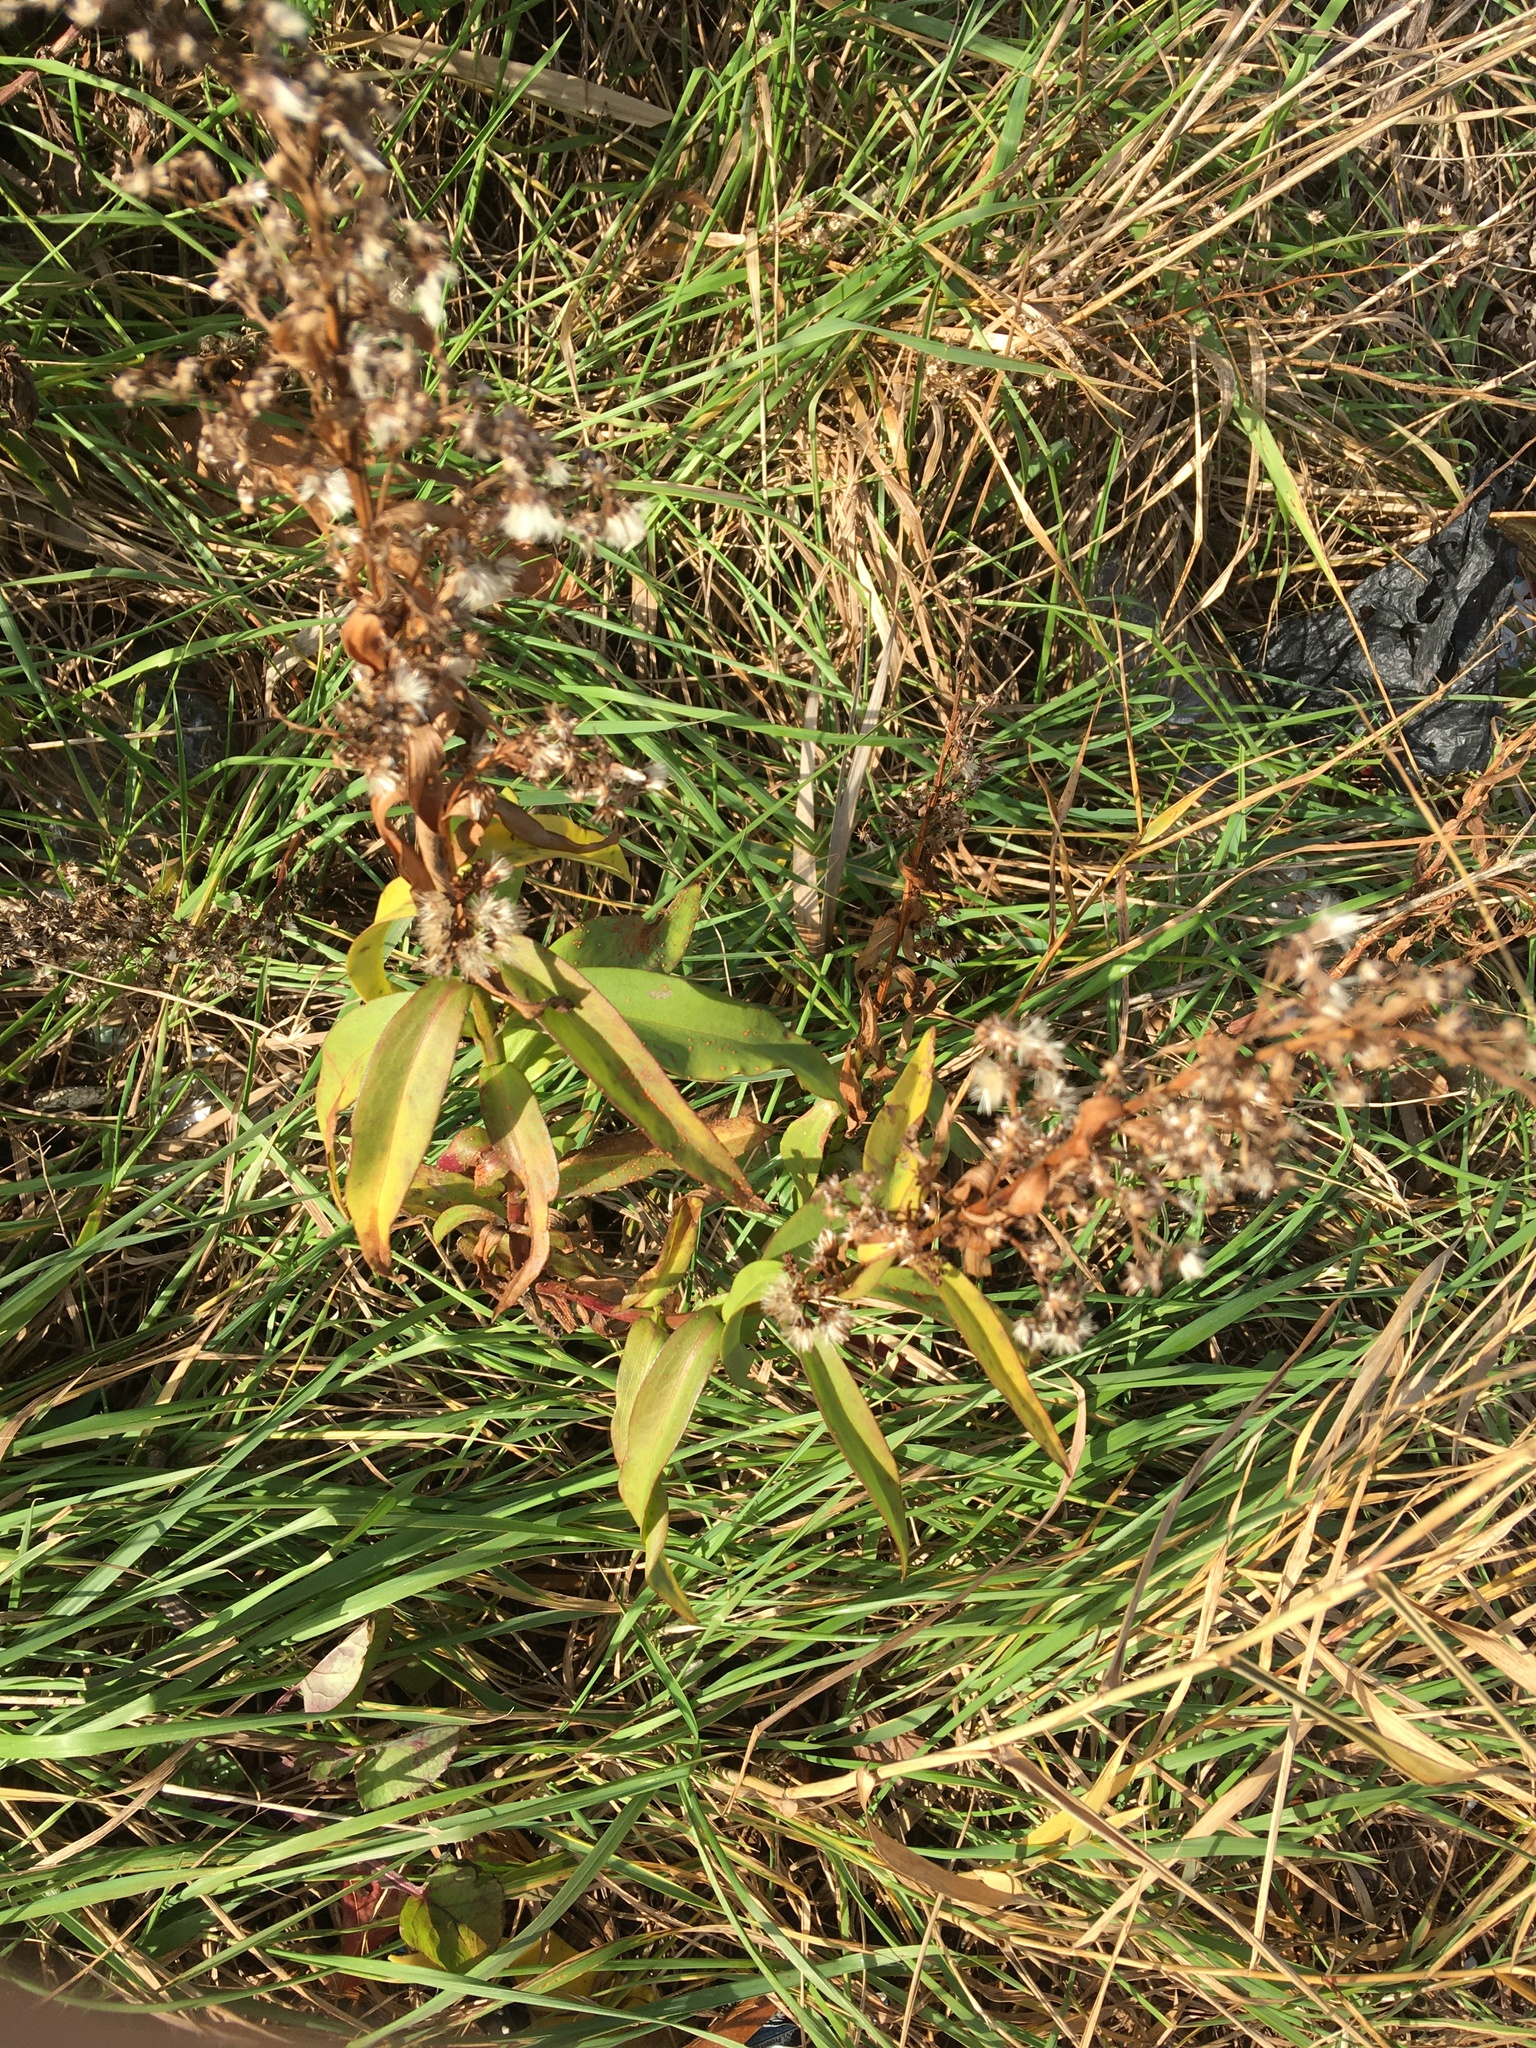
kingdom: Plantae
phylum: Tracheophyta
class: Magnoliopsida
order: Asterales
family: Asteraceae
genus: Solidago
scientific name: Solidago sempervirens
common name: Salt-marsh goldenrod
